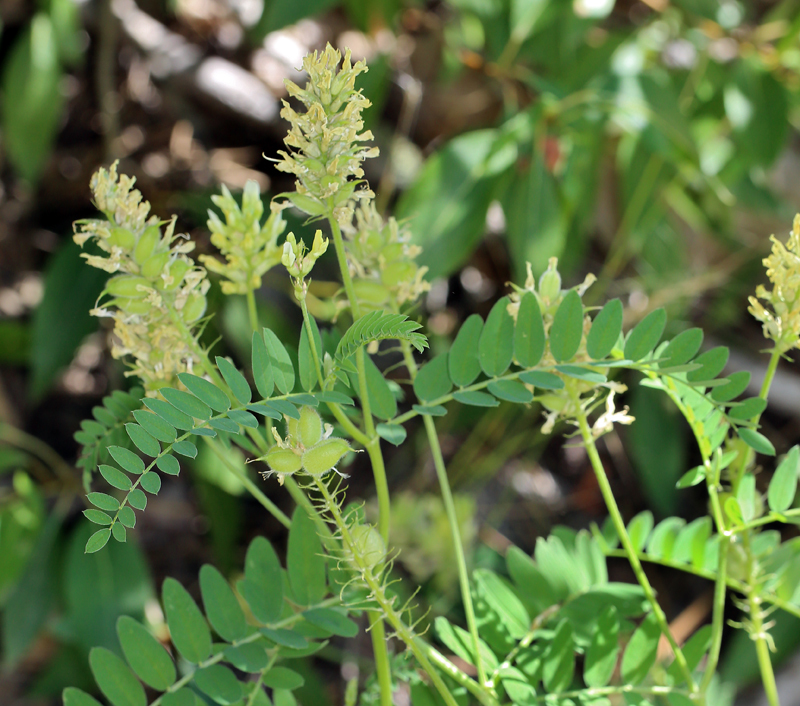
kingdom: Plantae
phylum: Tracheophyta
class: Magnoliopsida
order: Fabales
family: Fabaceae
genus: Astragalus
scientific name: Astragalus cicer
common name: Chick-pea milk-vetch
